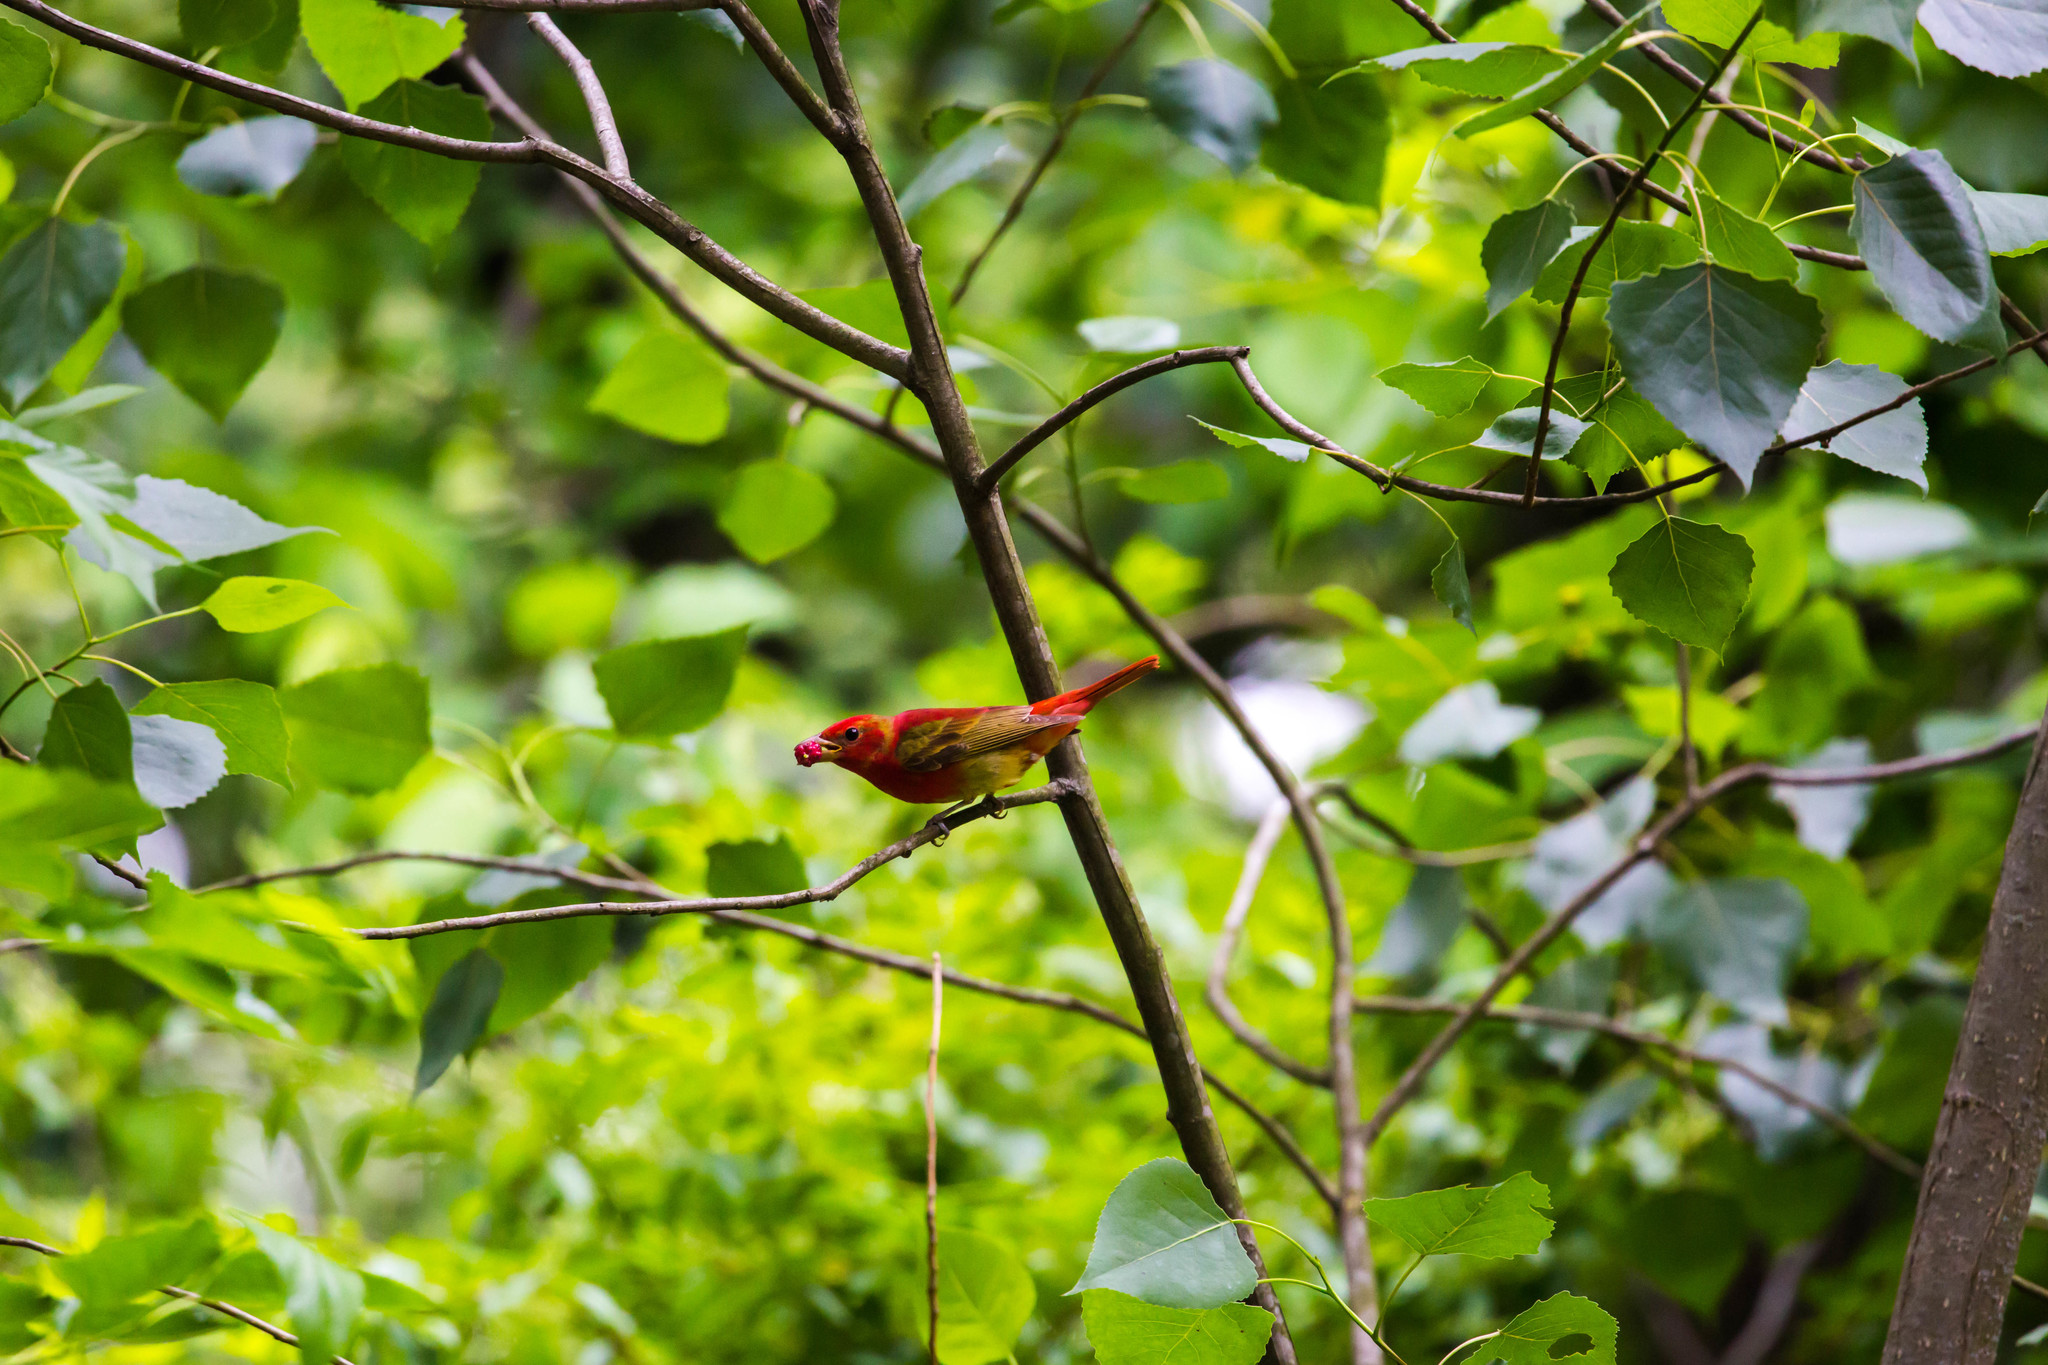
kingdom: Animalia
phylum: Chordata
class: Aves
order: Passeriformes
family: Cardinalidae
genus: Piranga
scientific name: Piranga rubra
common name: Summer tanager
